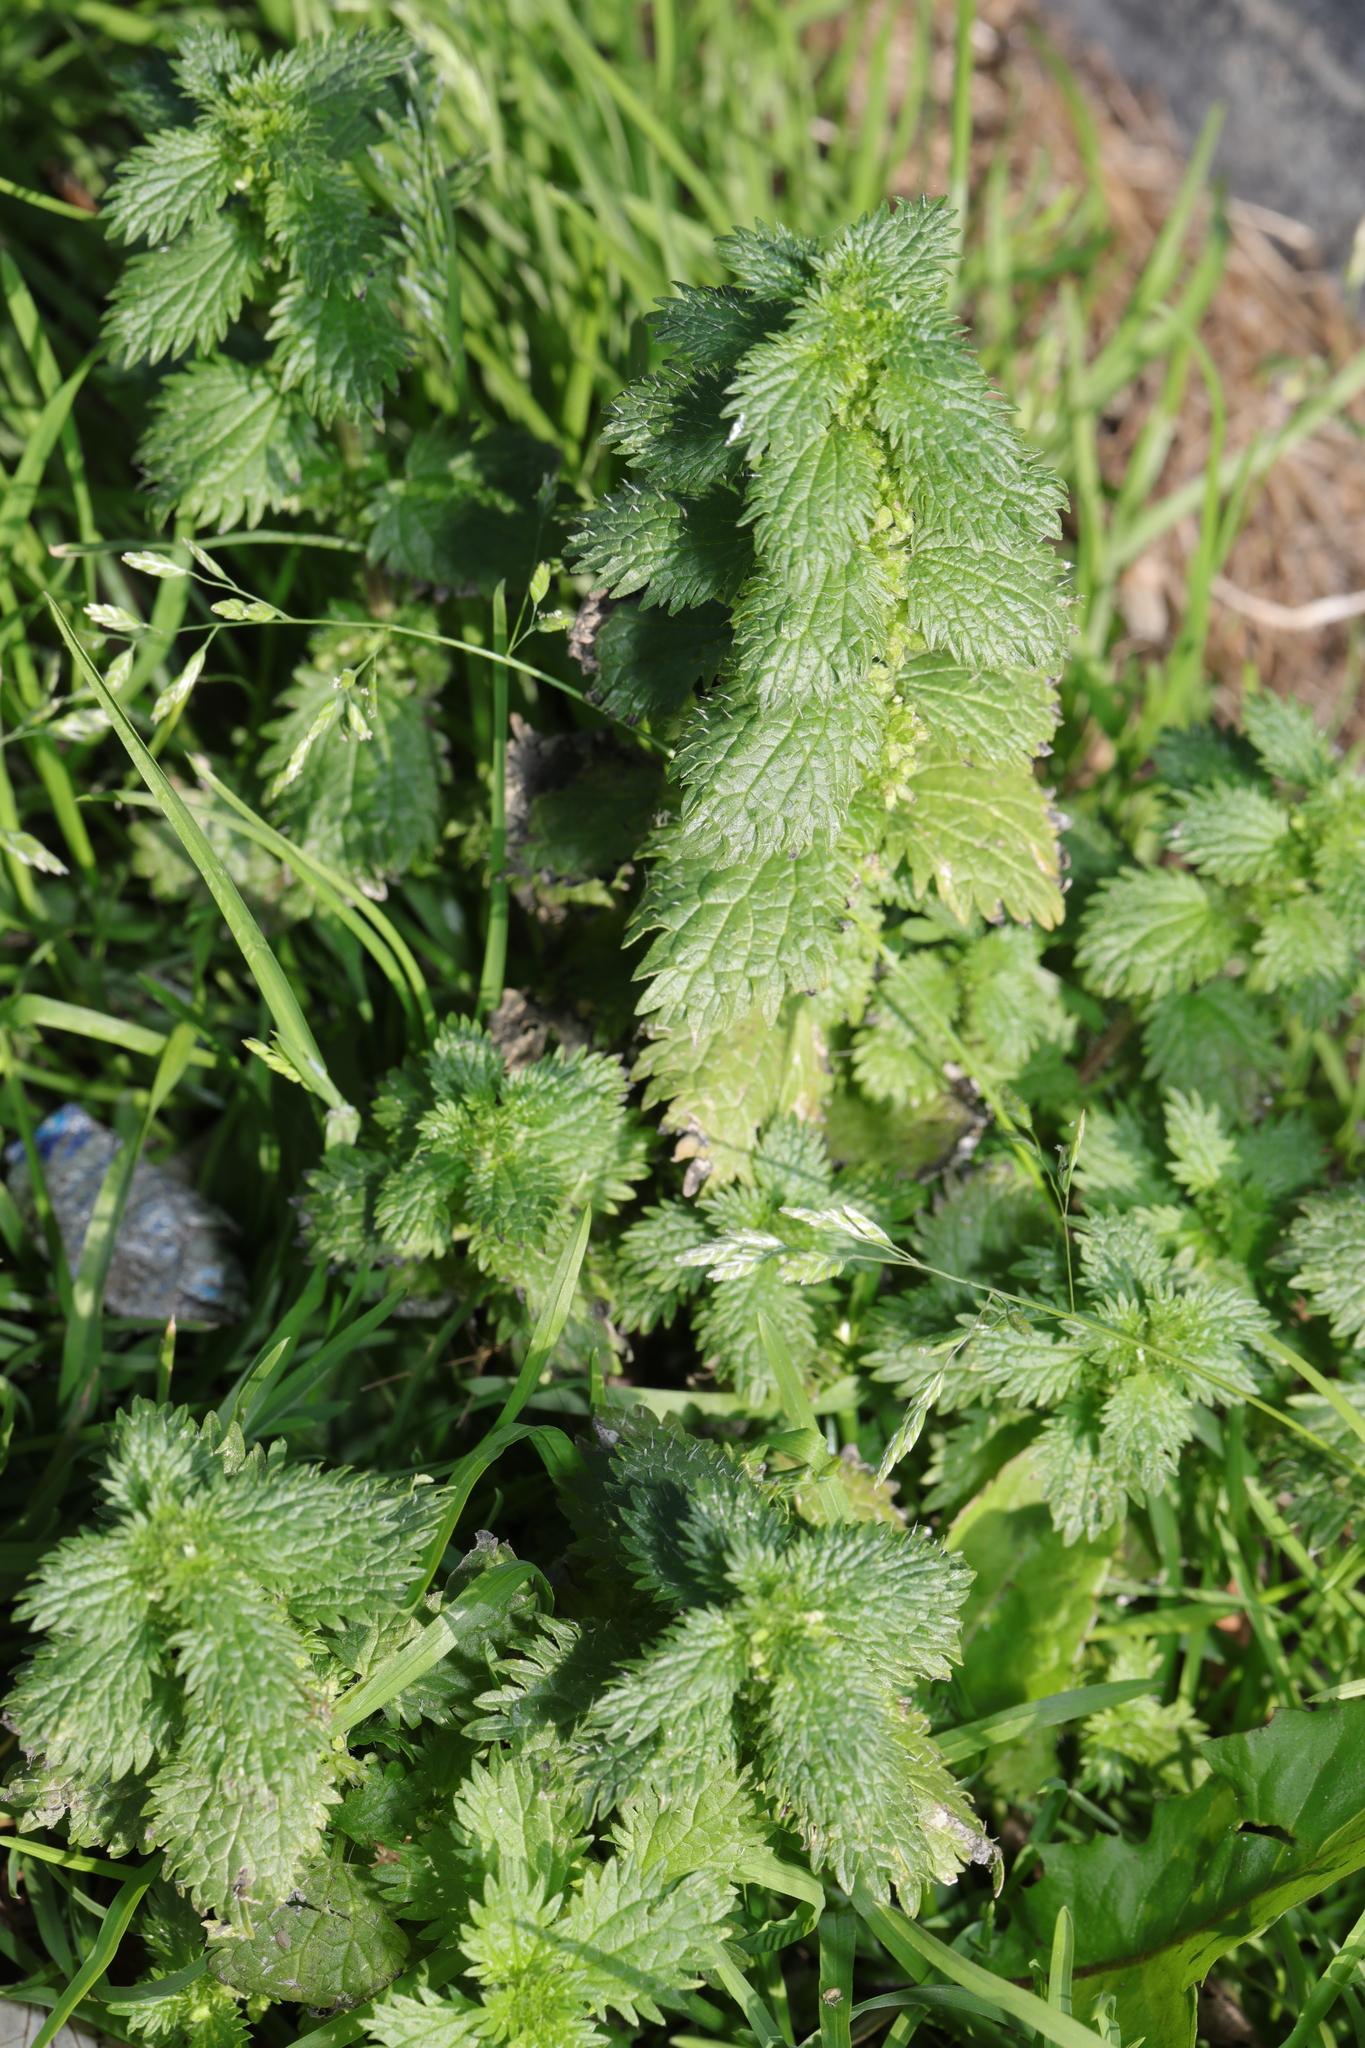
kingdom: Plantae
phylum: Tracheophyta
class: Magnoliopsida
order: Rosales
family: Urticaceae
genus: Urtica
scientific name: Urtica urens
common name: Dwarf nettle
